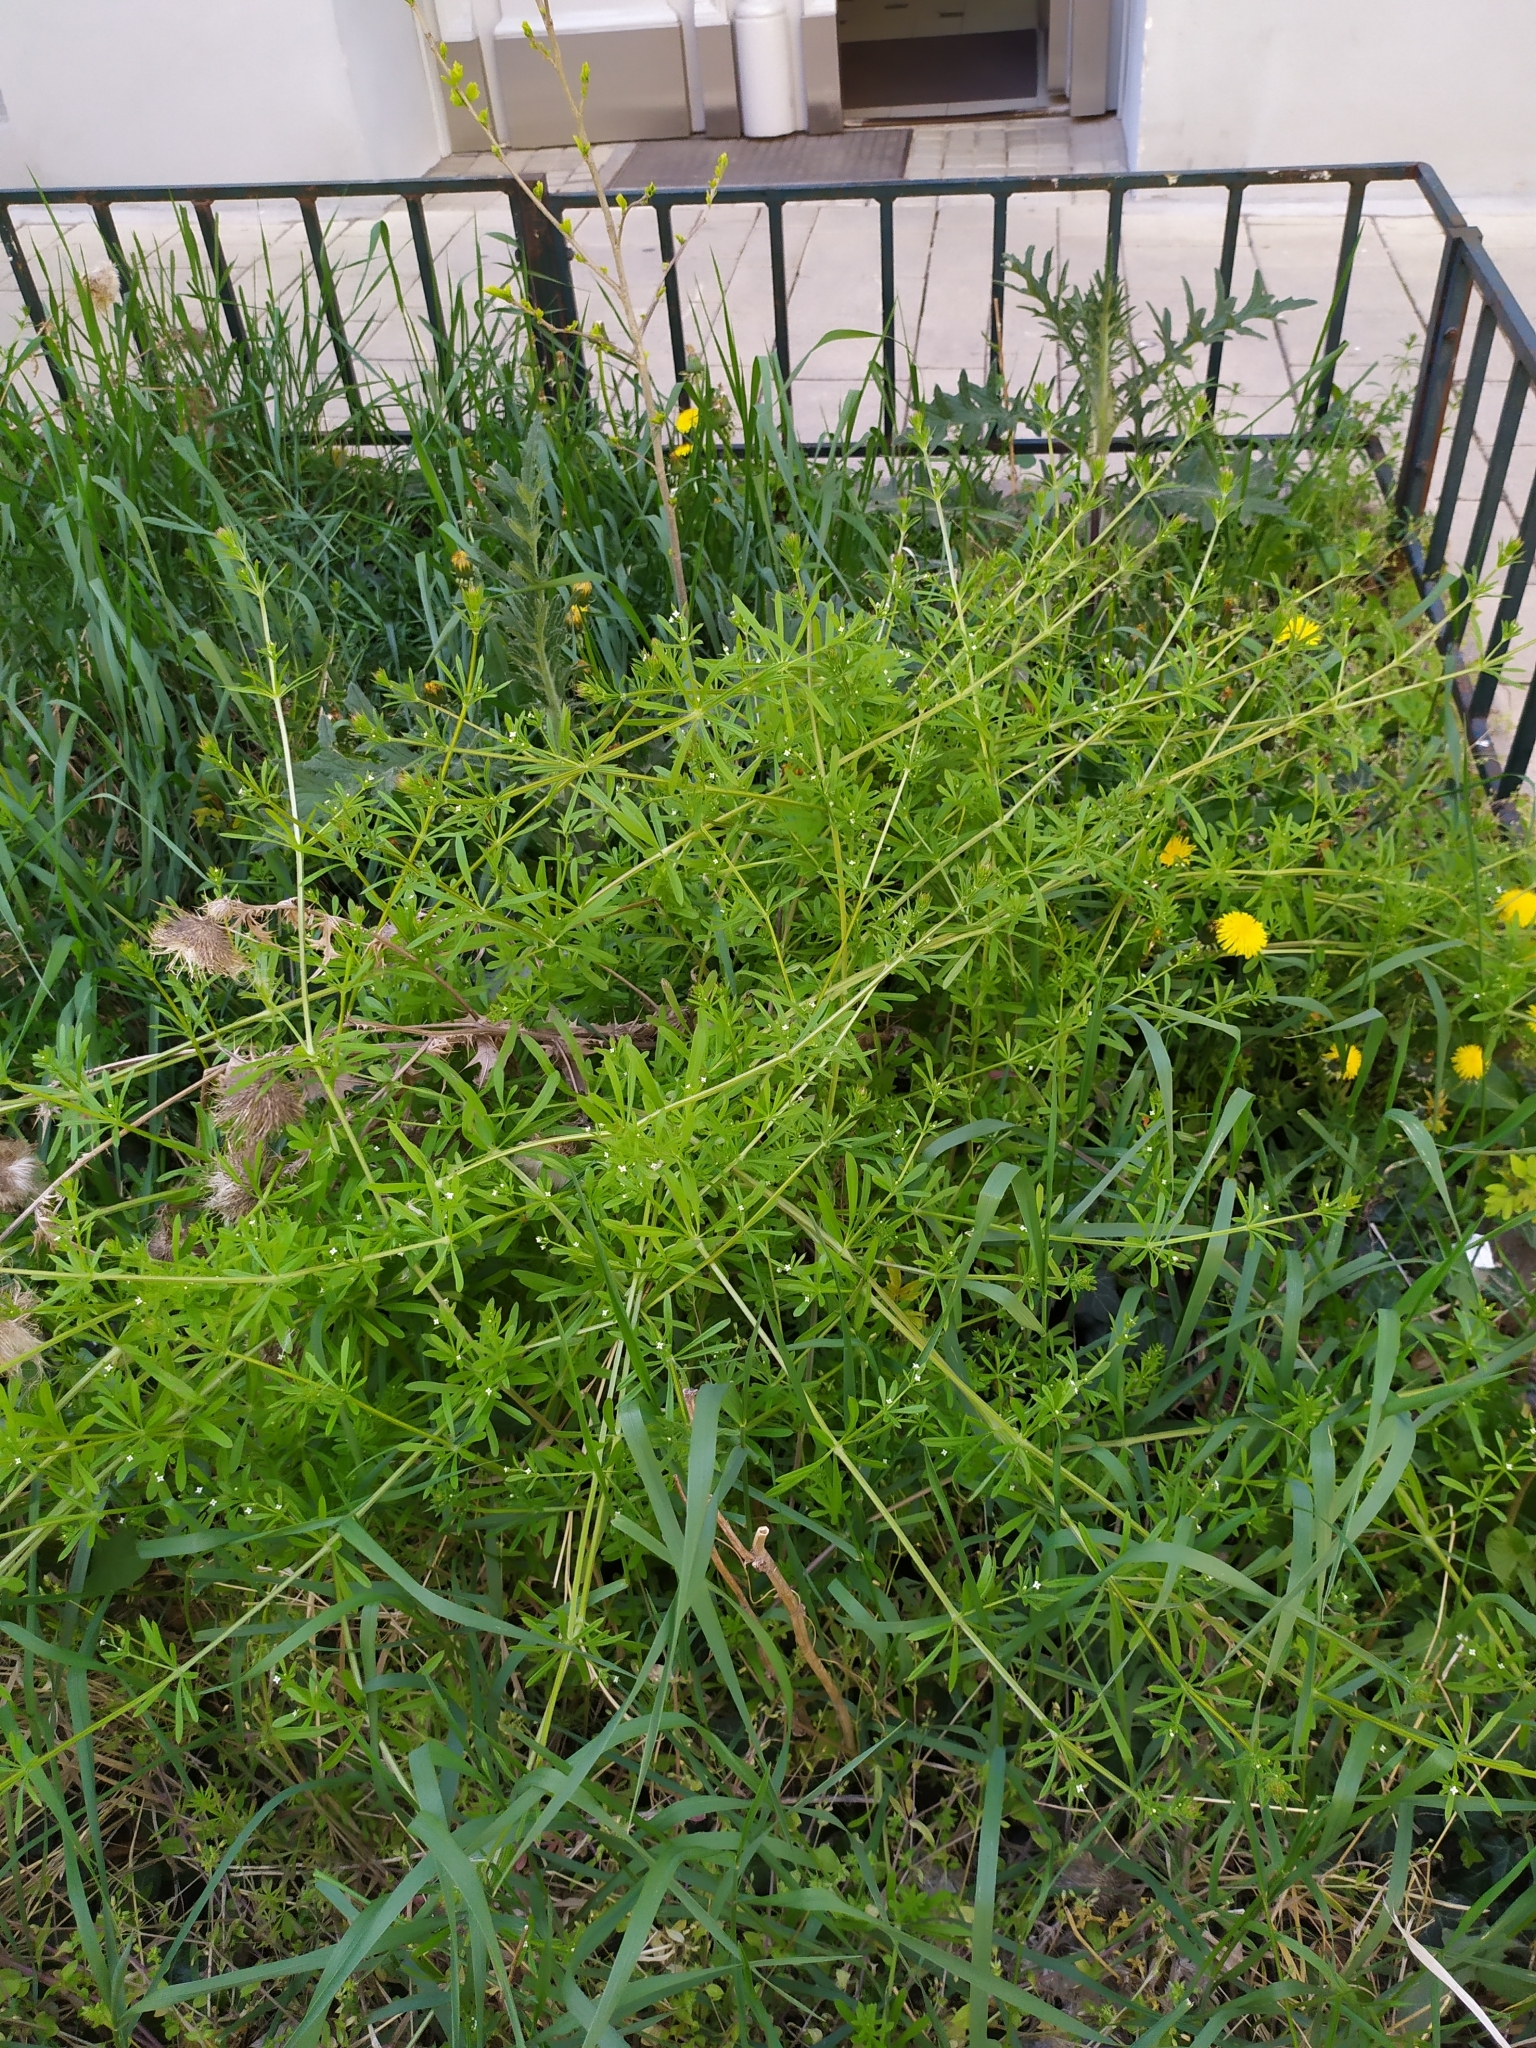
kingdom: Plantae
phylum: Tracheophyta
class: Magnoliopsida
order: Gentianales
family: Rubiaceae
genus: Galium
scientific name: Galium aparine
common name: Cleavers
